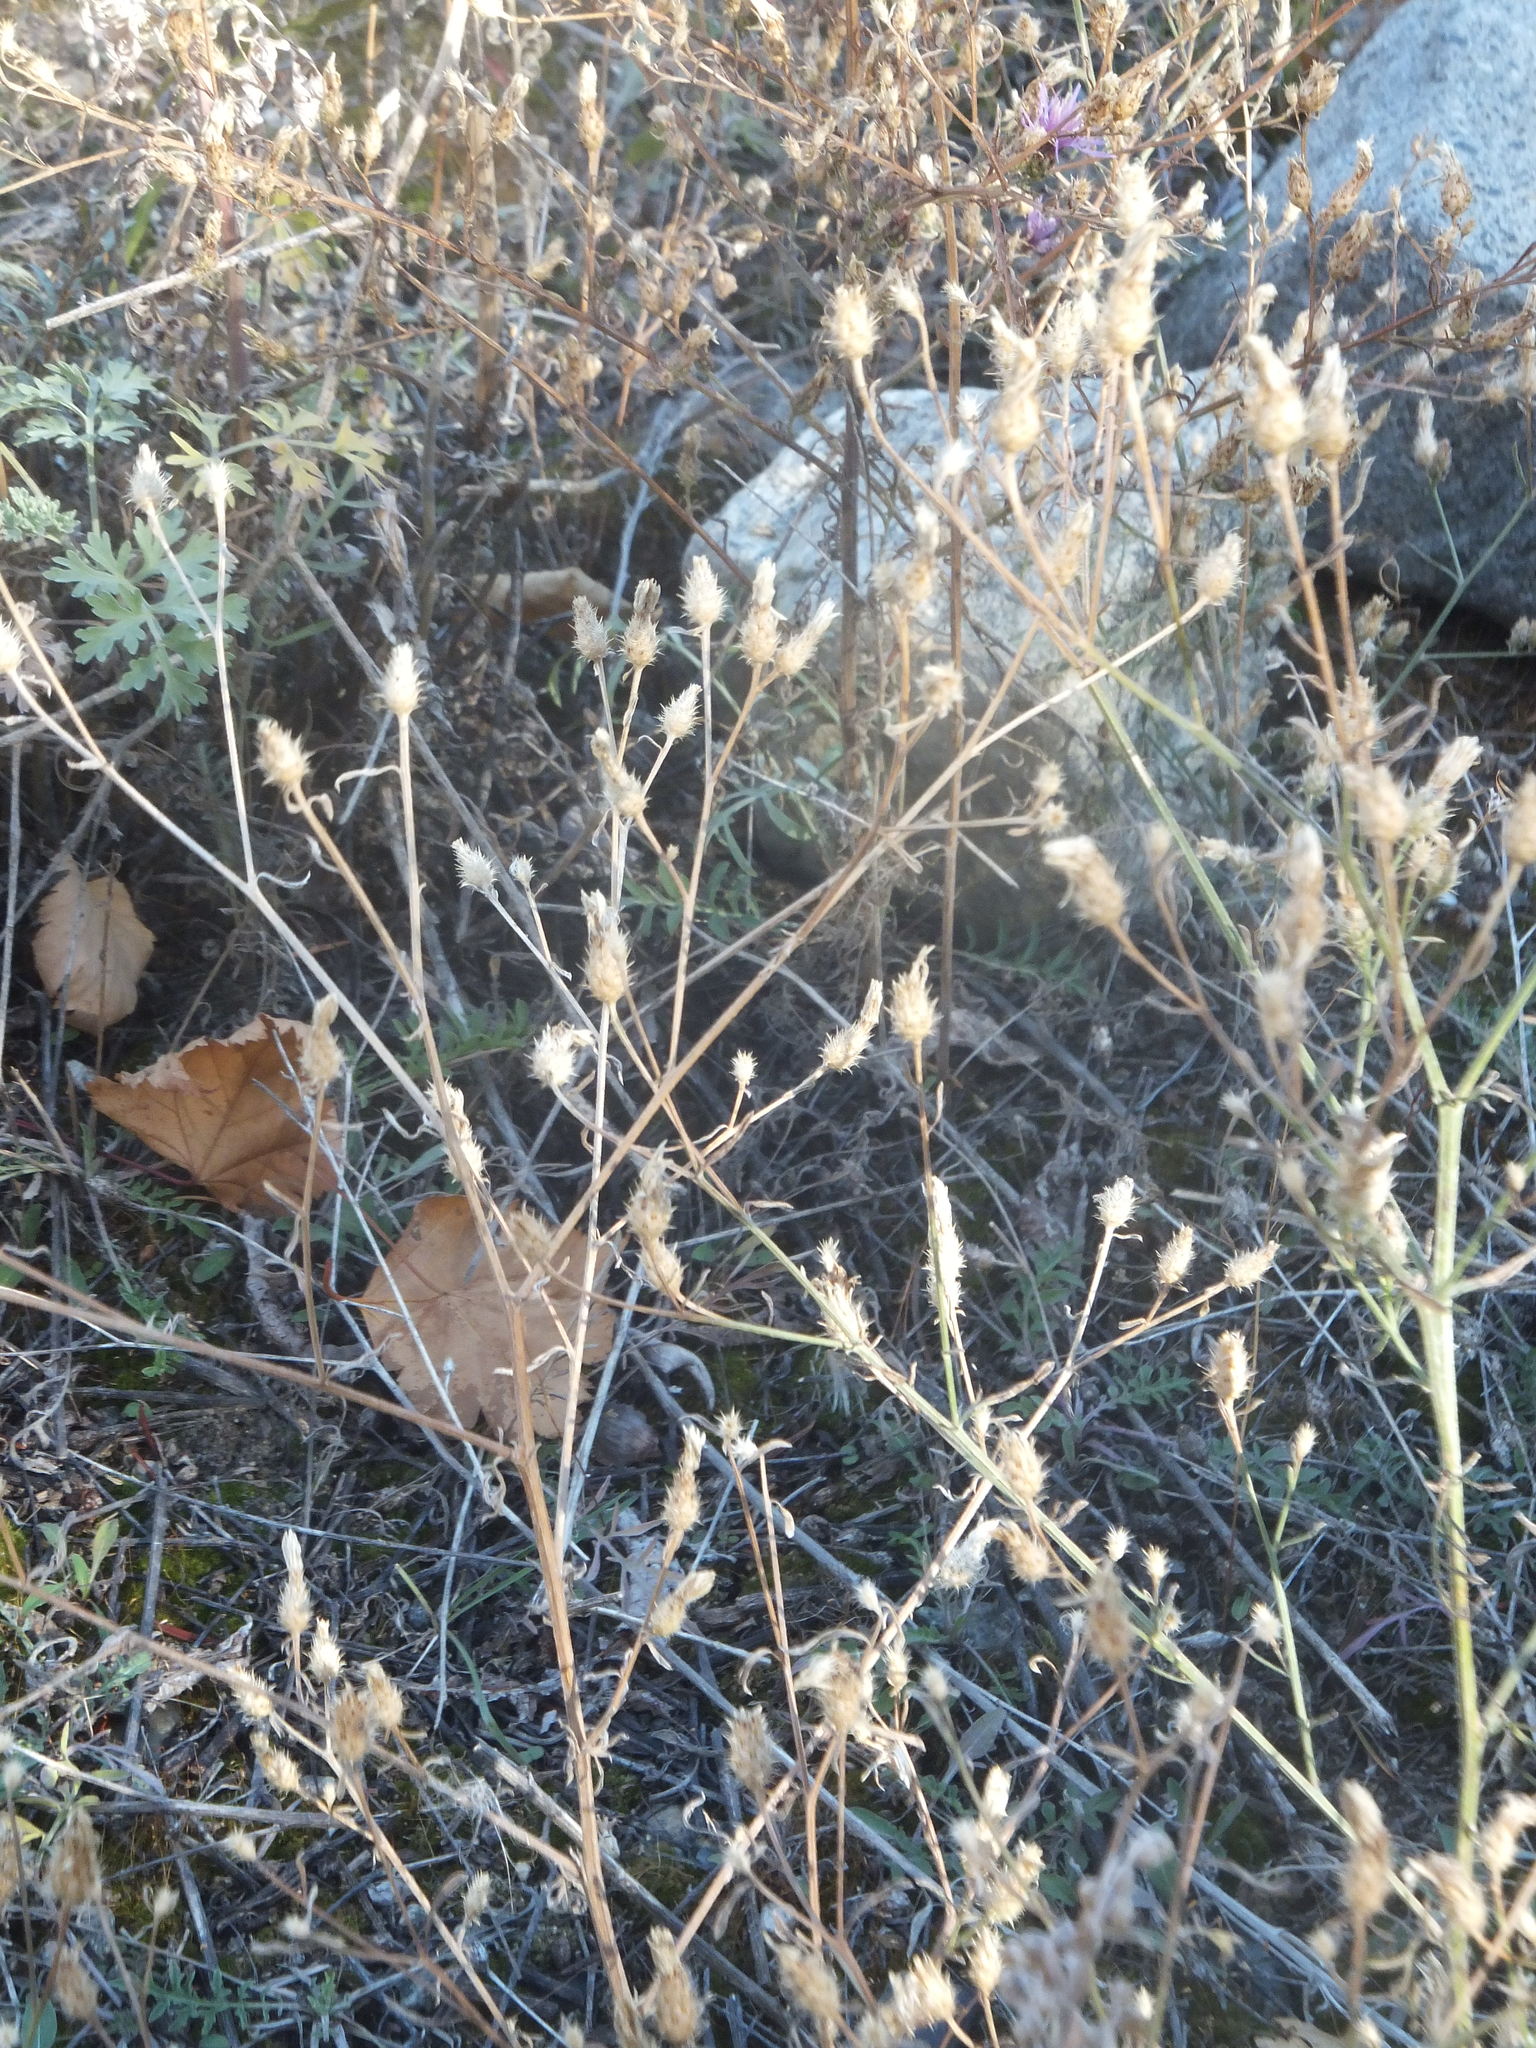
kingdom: Plantae
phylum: Tracheophyta
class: Magnoliopsida
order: Asterales
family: Asteraceae
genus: Centaurea
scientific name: Centaurea diffusa
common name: Diffuse knapweed
